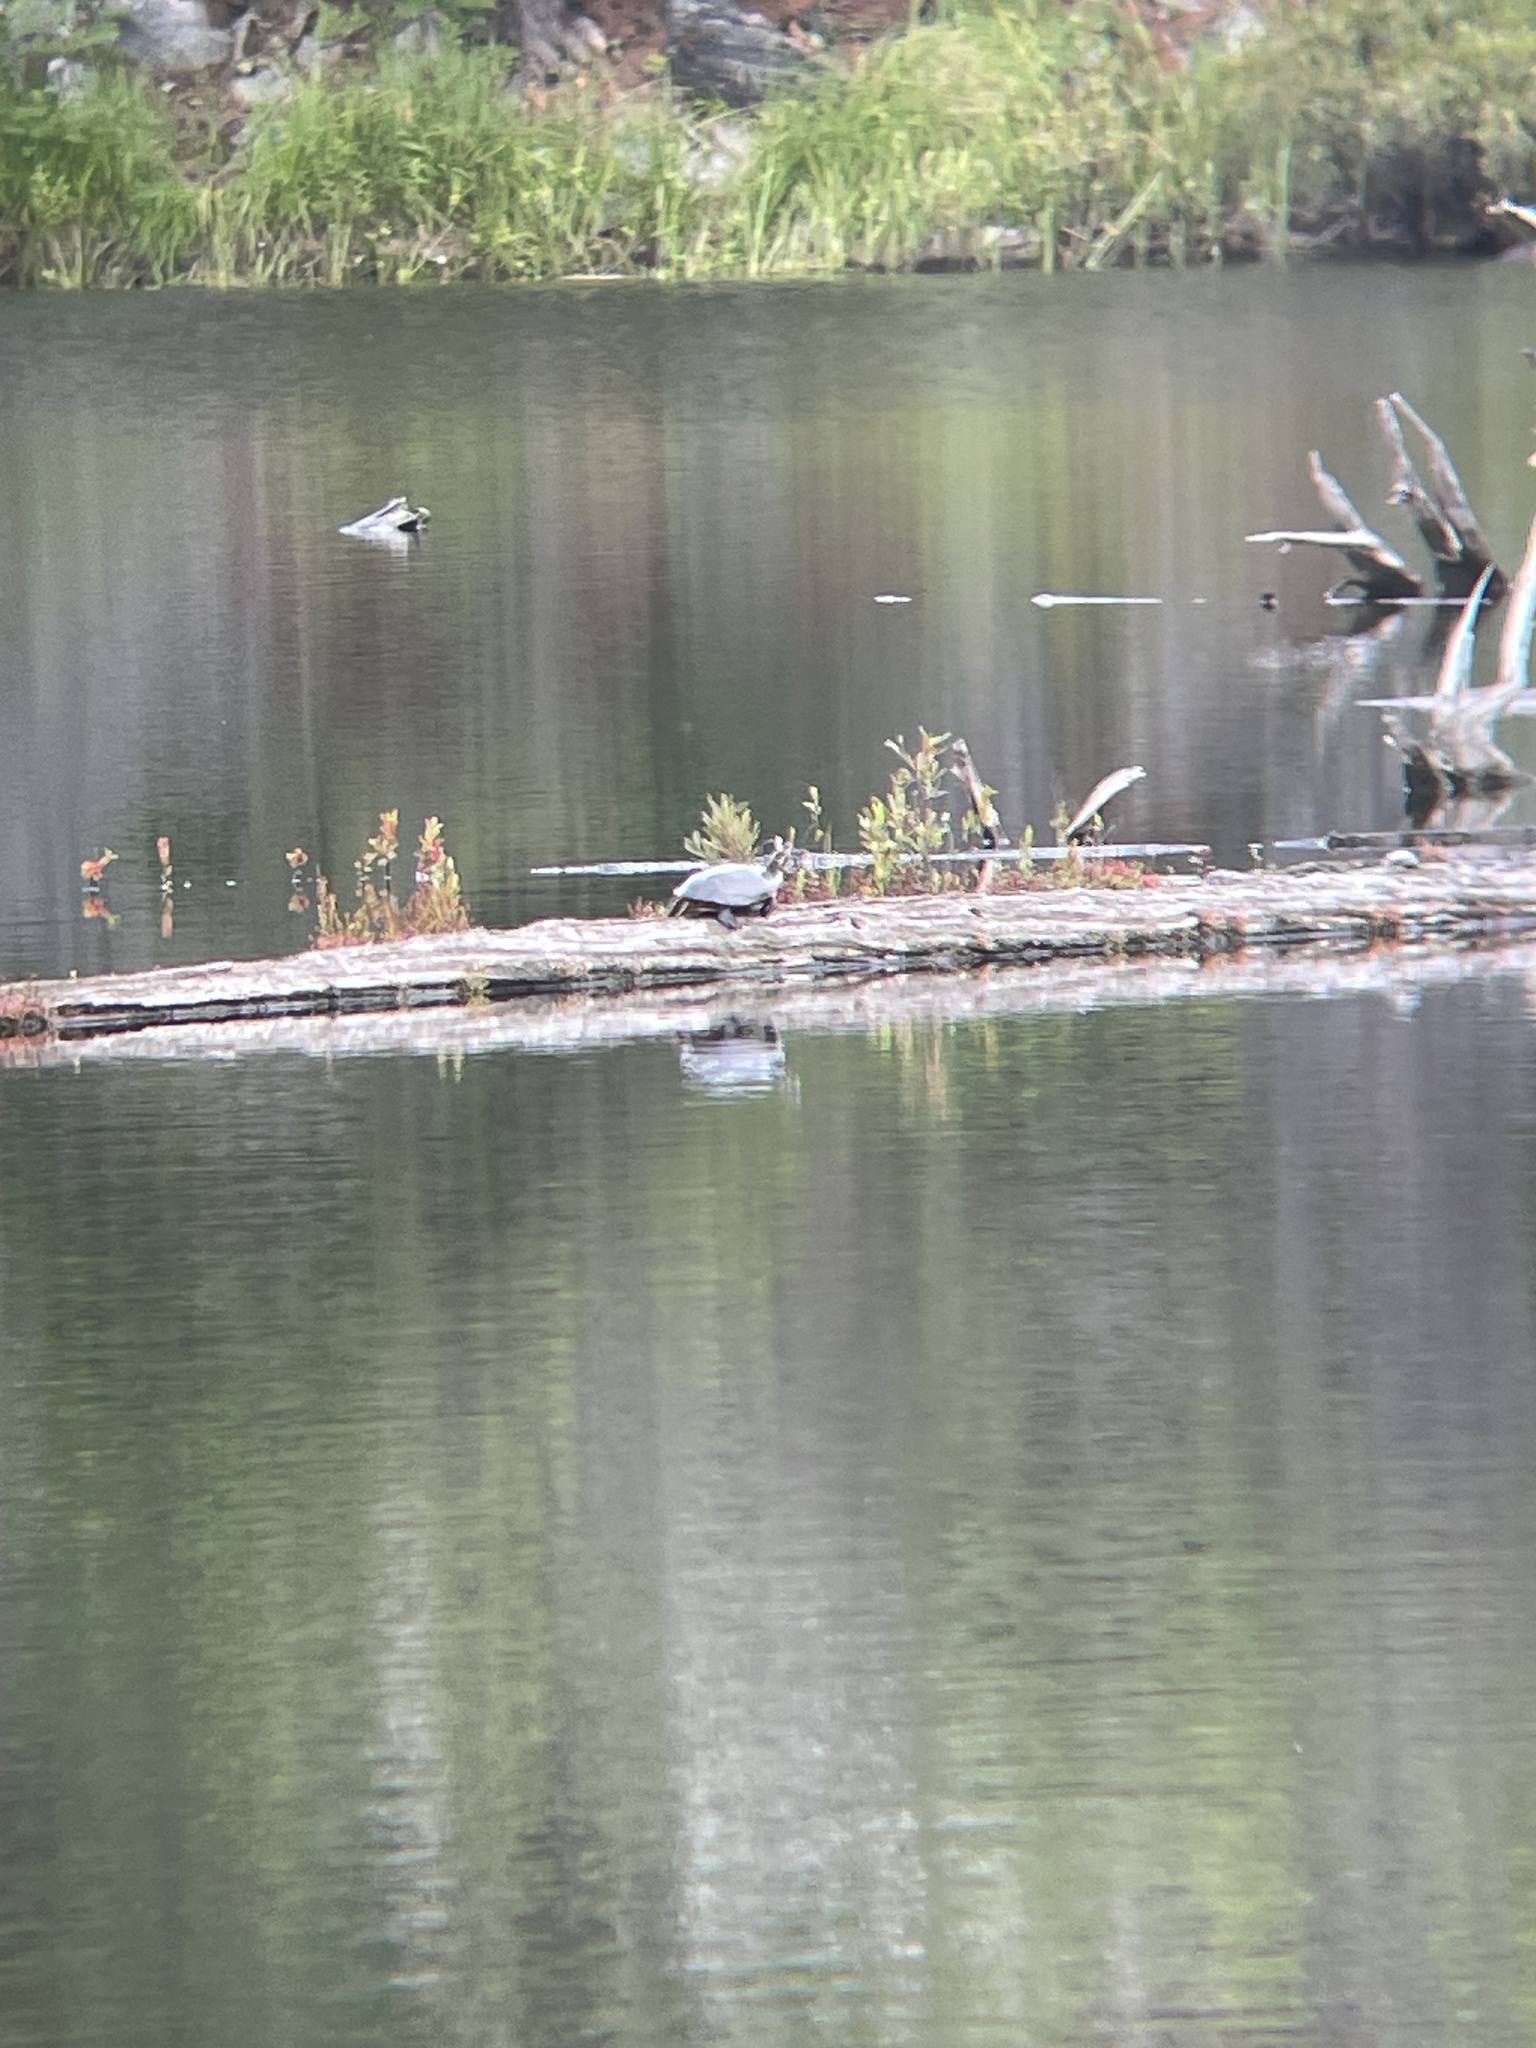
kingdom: Animalia
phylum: Chordata
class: Testudines
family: Emydidae
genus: Chrysemys
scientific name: Chrysemys picta
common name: Painted turtle
